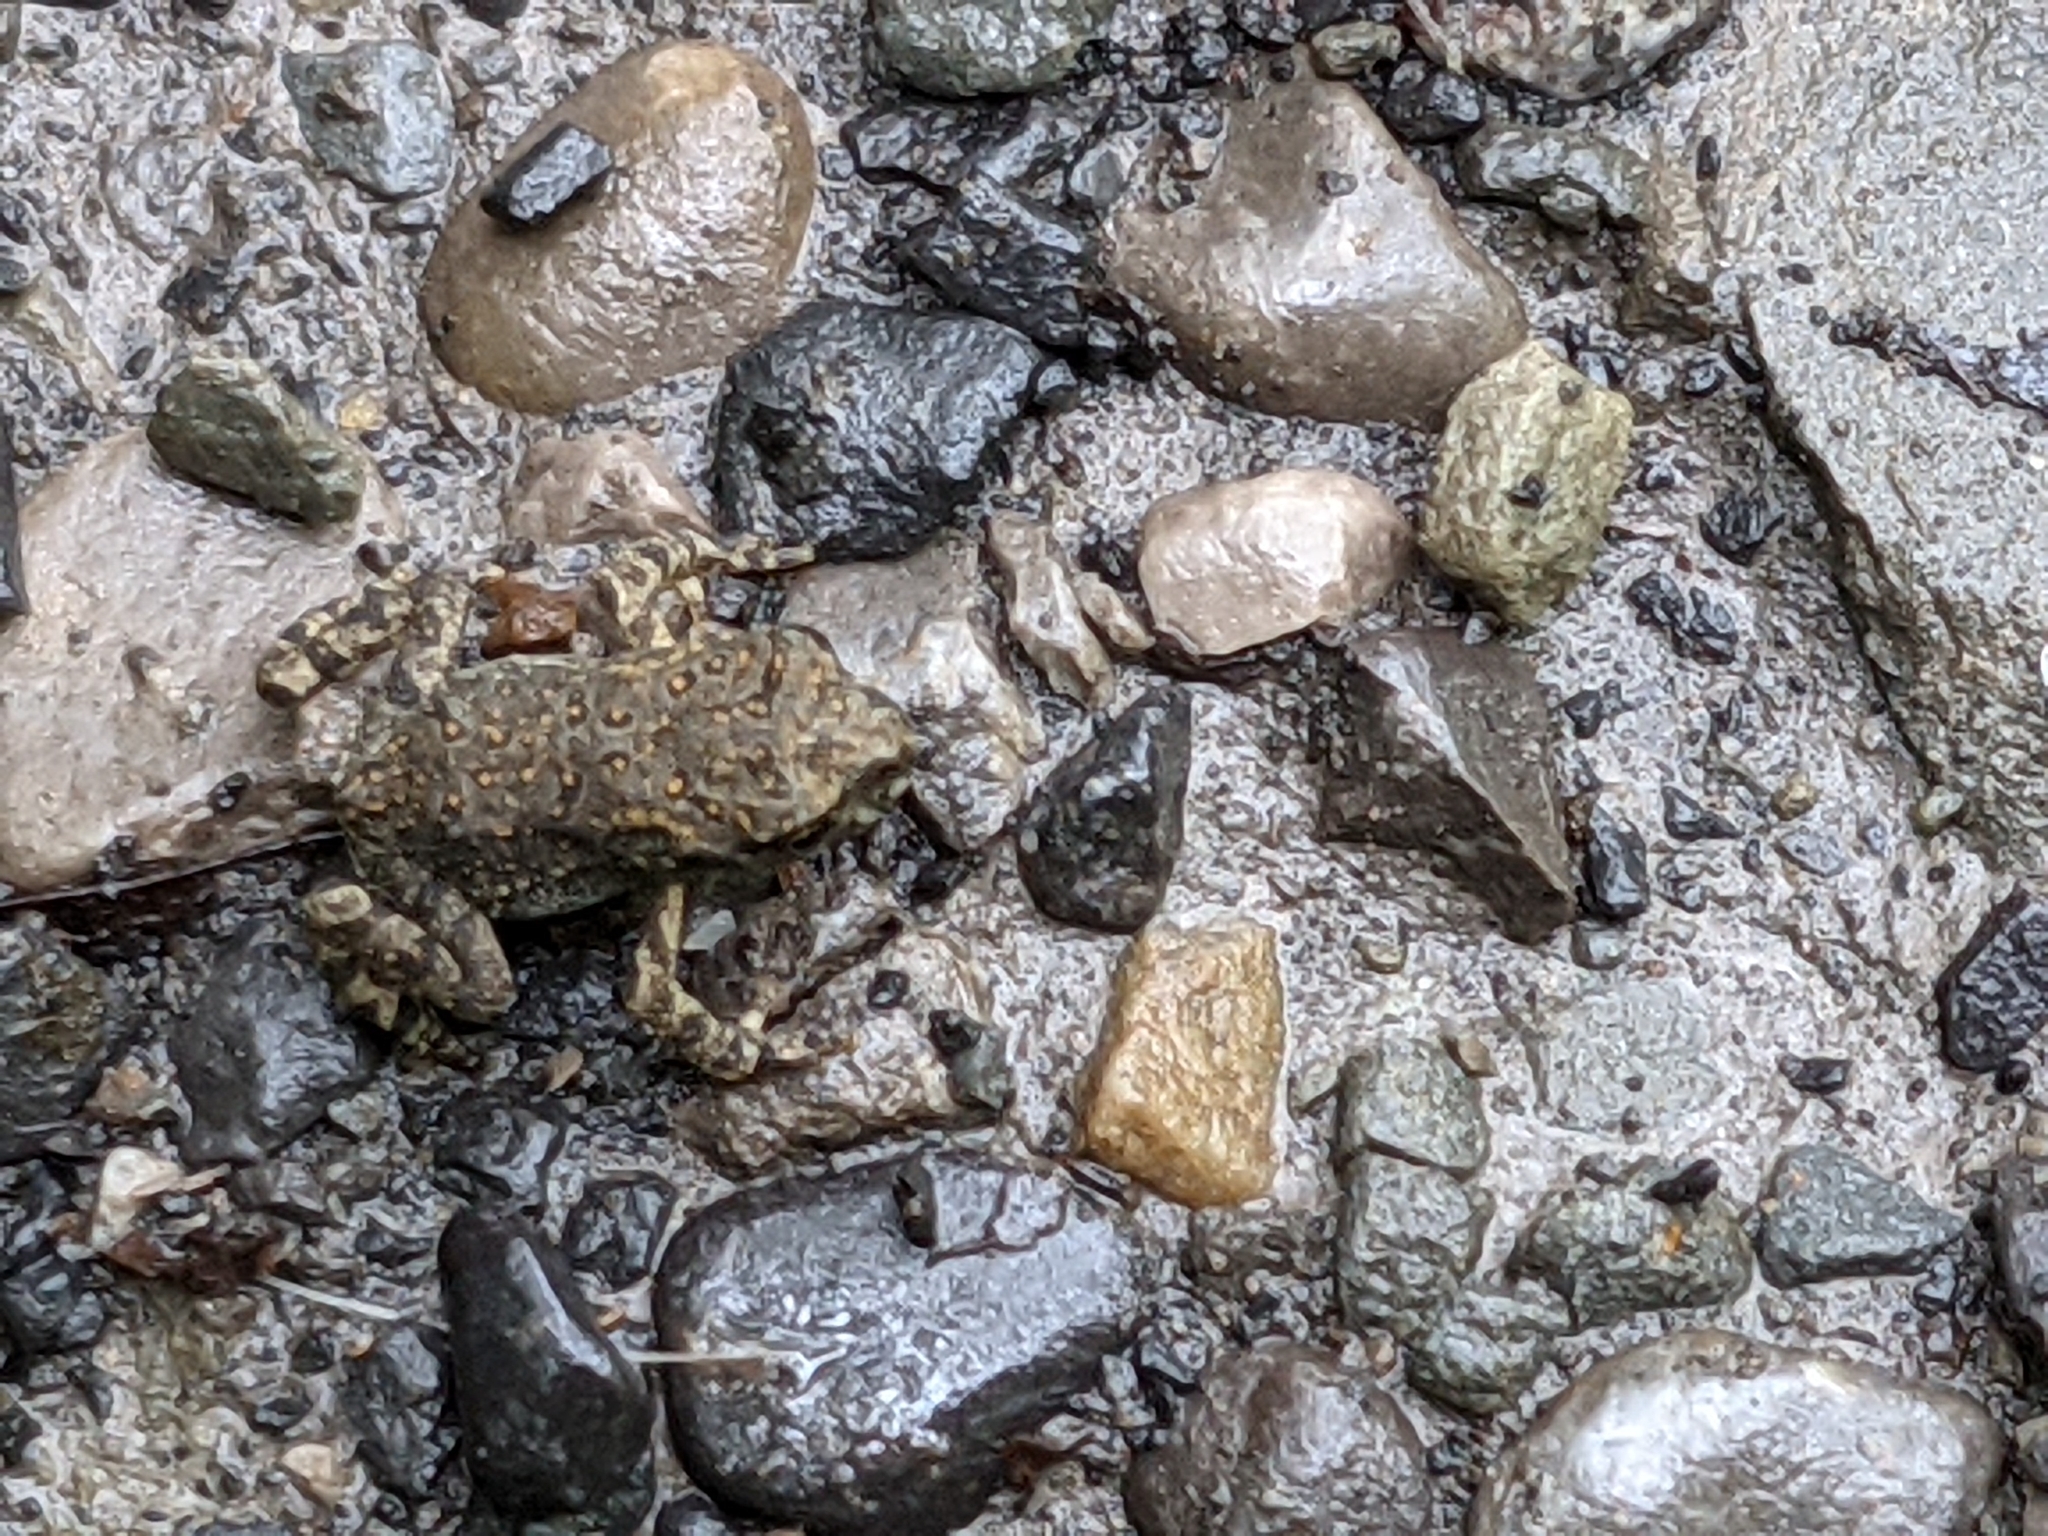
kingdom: Animalia
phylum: Chordata
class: Amphibia
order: Anura
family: Bufonidae
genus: Anaxyrus
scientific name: Anaxyrus americanus
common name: American toad
